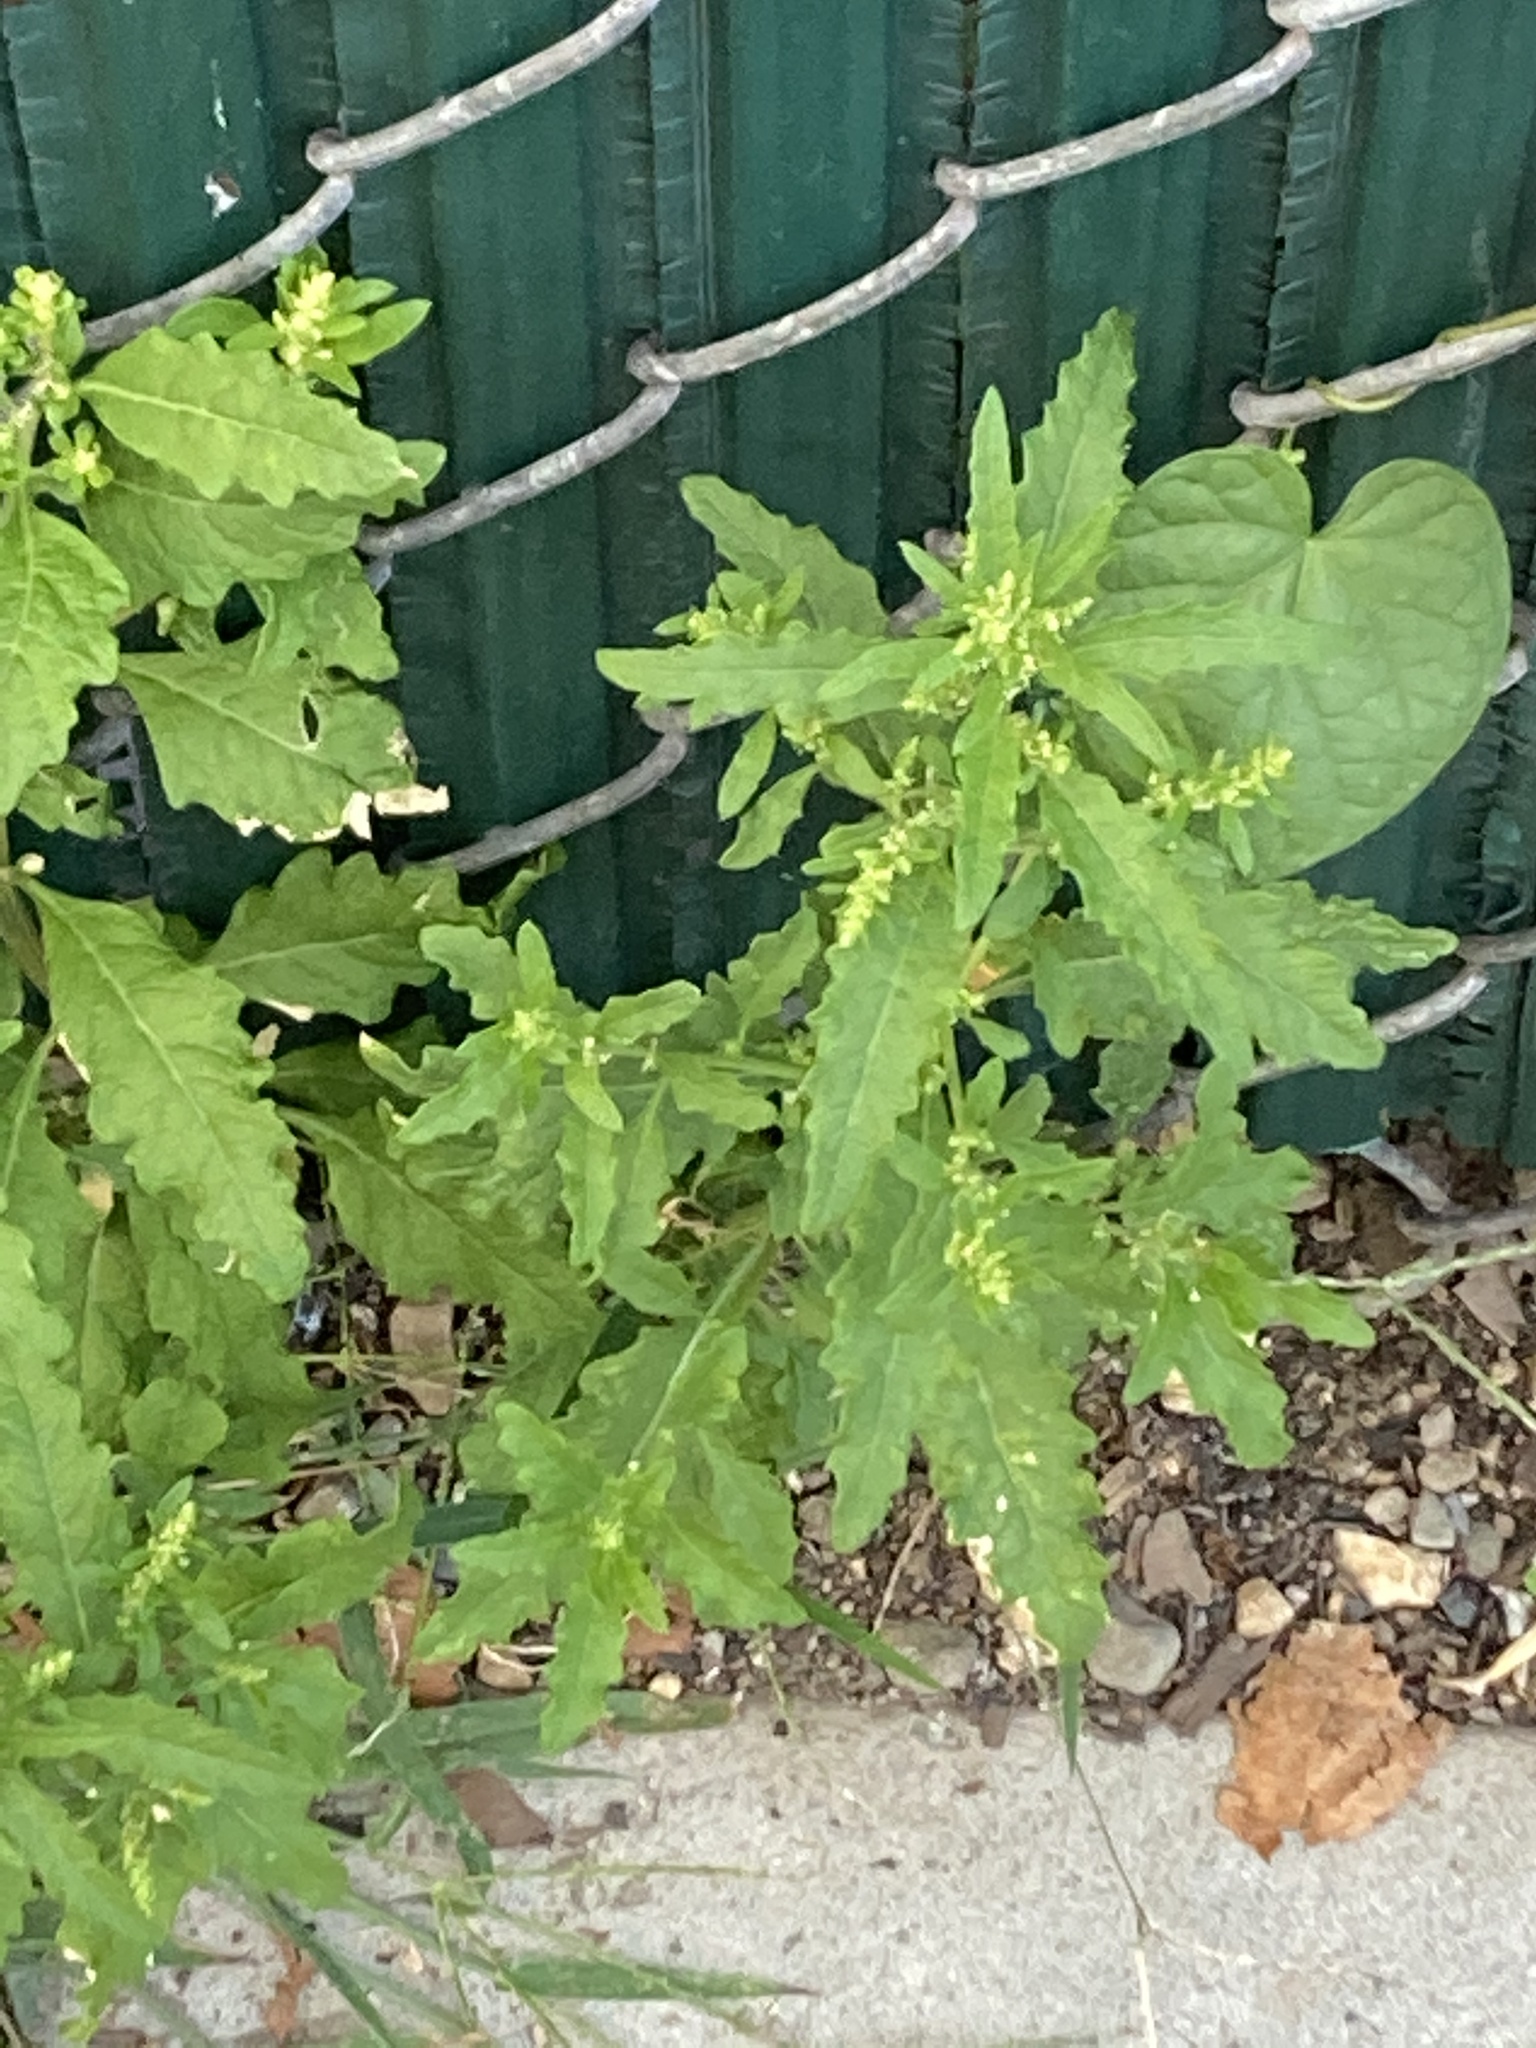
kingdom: Plantae
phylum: Tracheophyta
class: Magnoliopsida
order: Caryophyllales
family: Amaranthaceae
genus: Dysphania
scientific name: Dysphania ambrosioides
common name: Wormseed
